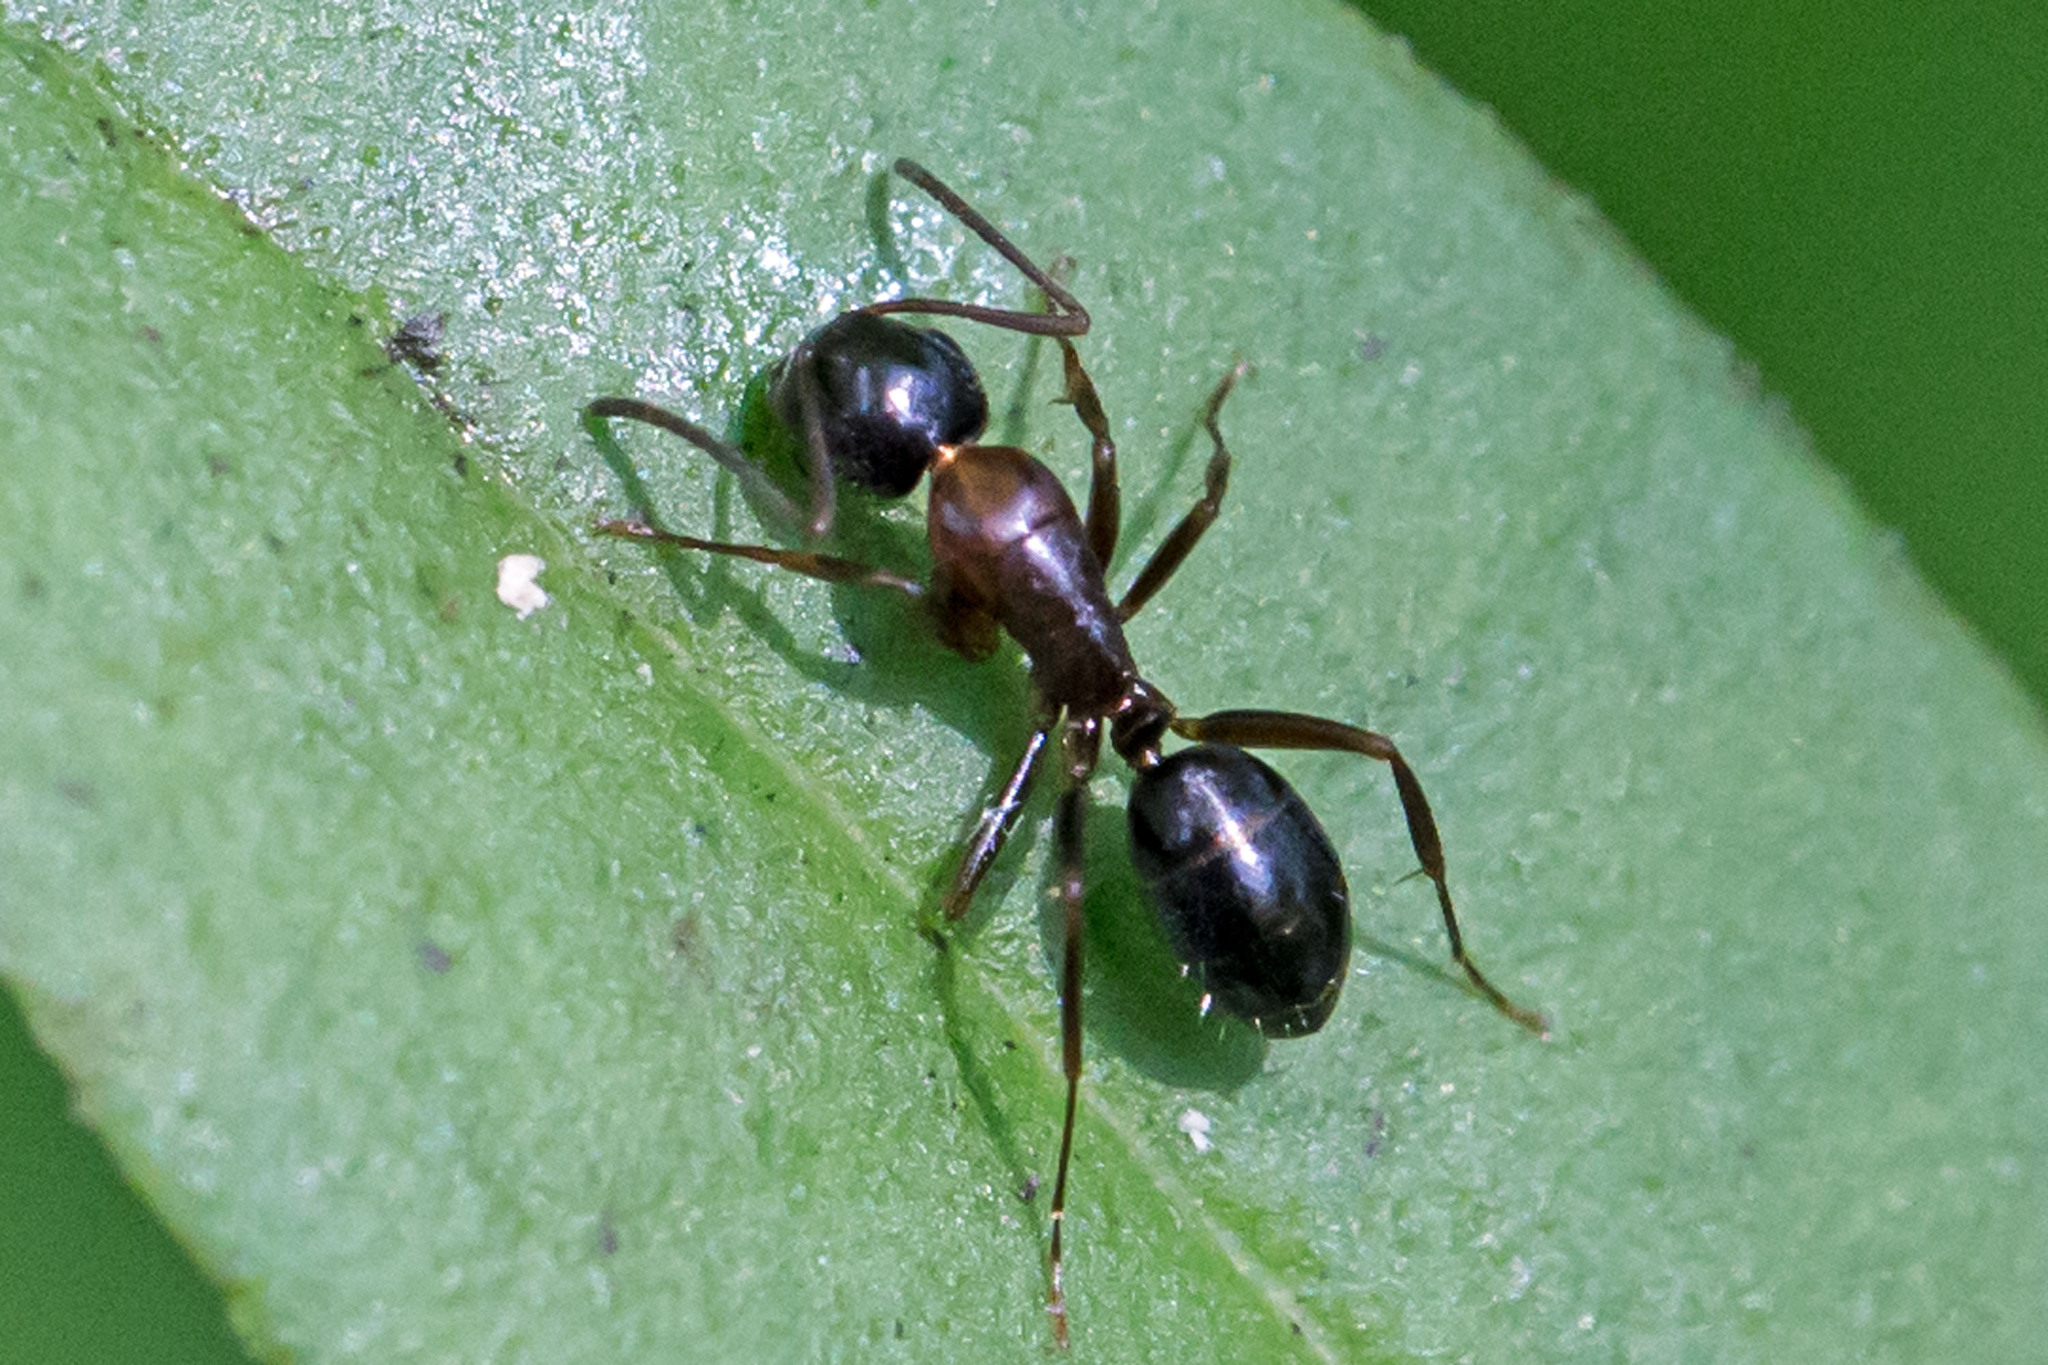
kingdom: Animalia
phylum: Arthropoda
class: Insecta
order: Hymenoptera
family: Formicidae
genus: Camponotus
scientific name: Camponotus nearcticus
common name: Smaller carpenter ant
